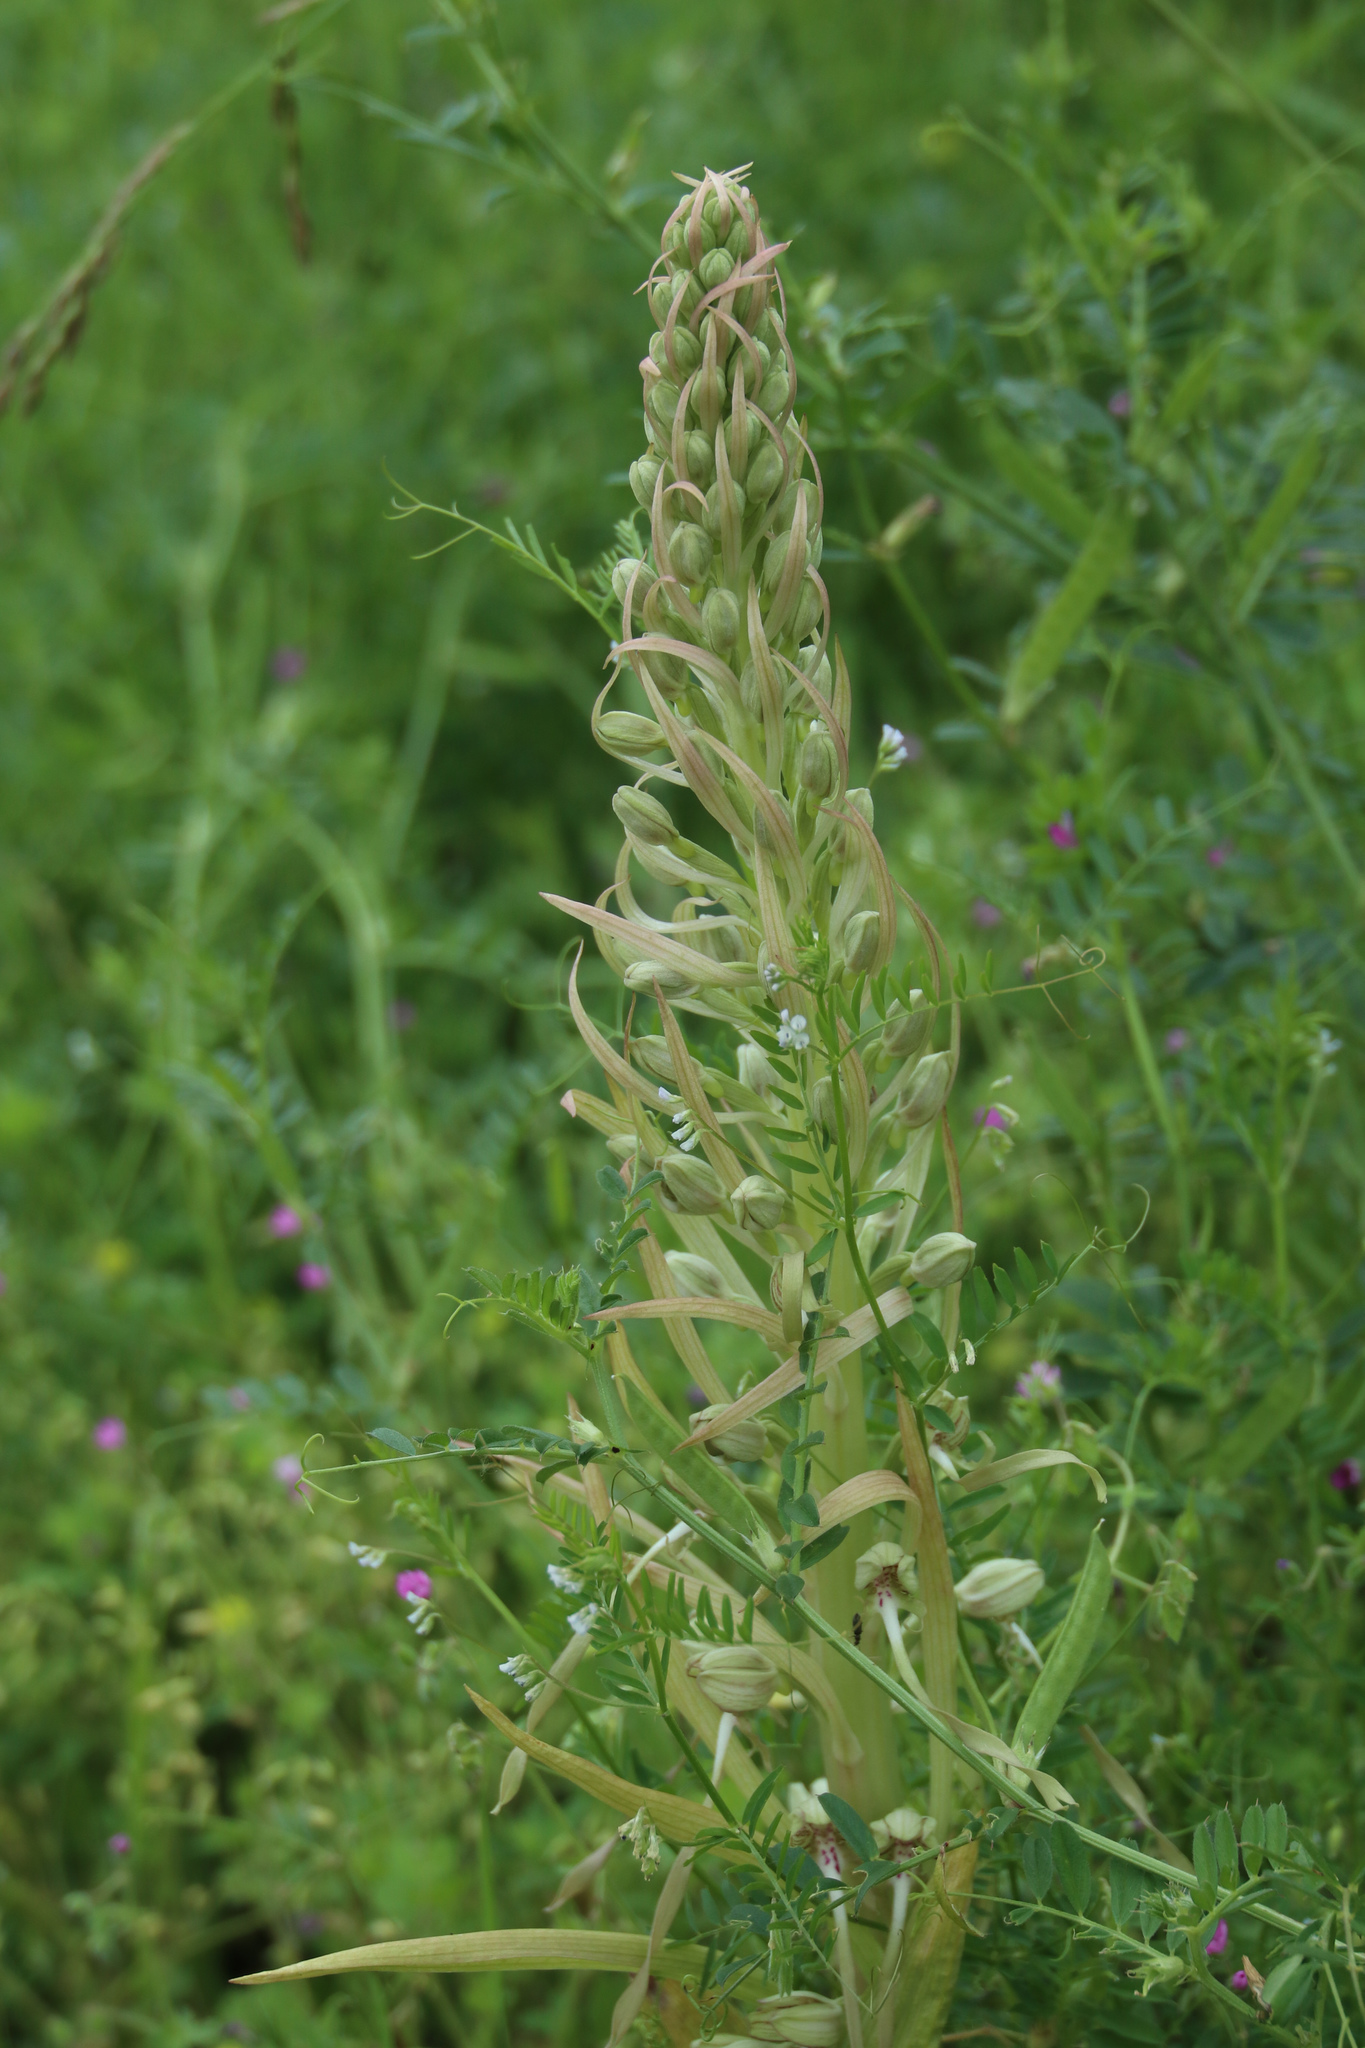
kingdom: Plantae
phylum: Tracheophyta
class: Liliopsida
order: Asparagales
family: Orchidaceae
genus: Himantoglossum
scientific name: Himantoglossum hircinum
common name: Lizard orchid
